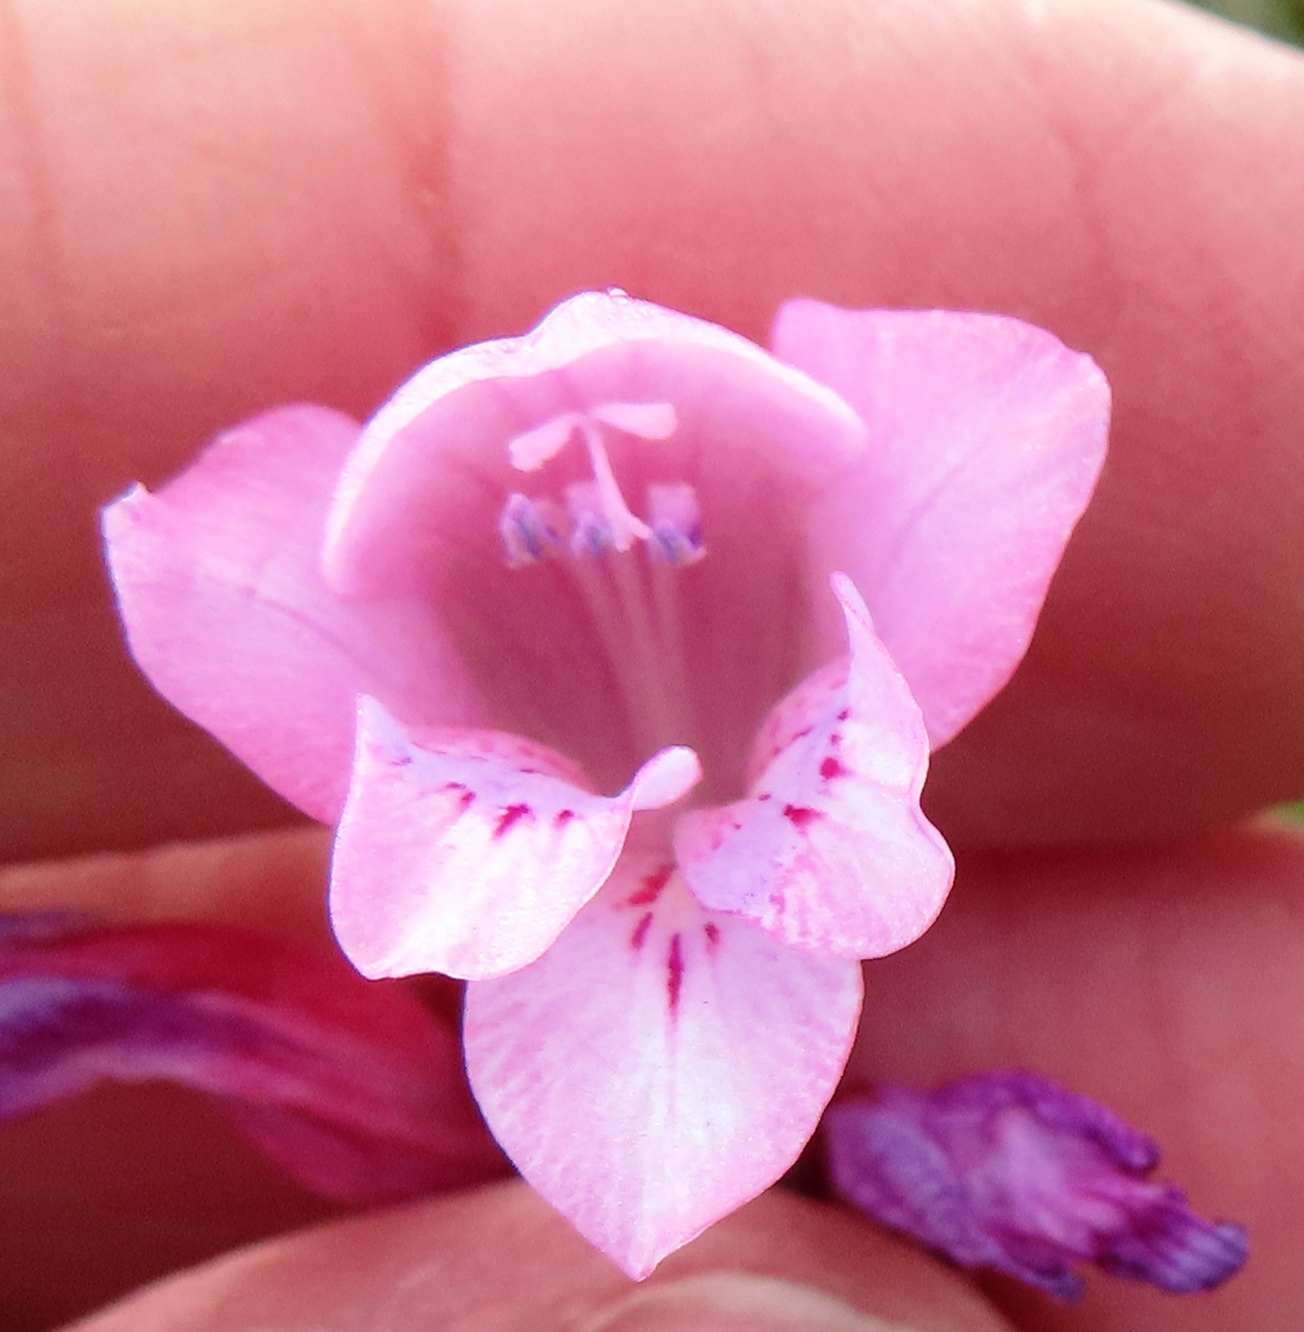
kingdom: Plantae
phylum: Tracheophyta
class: Liliopsida
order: Asparagales
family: Iridaceae
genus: Gladiolus
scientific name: Gladiolus brevifolius
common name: March pypie
